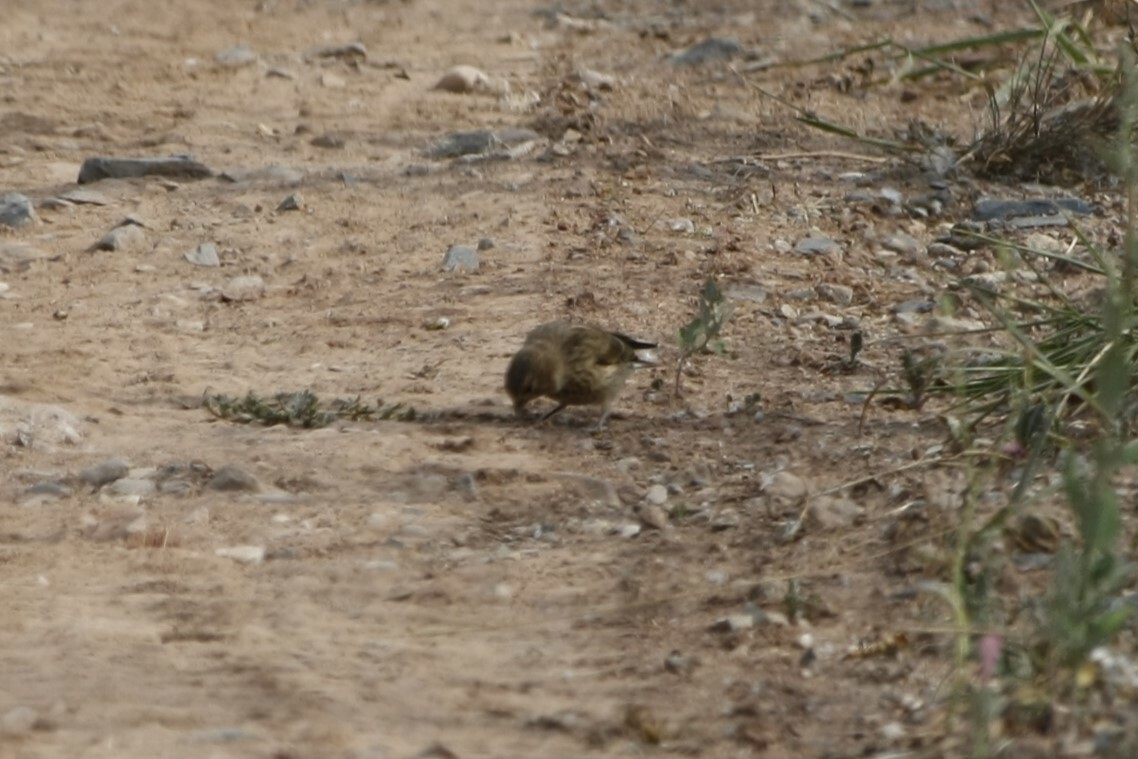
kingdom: Animalia
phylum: Chordata
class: Aves
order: Passeriformes
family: Fringillidae
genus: Linaria
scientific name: Linaria cannabina
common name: Common linnet
